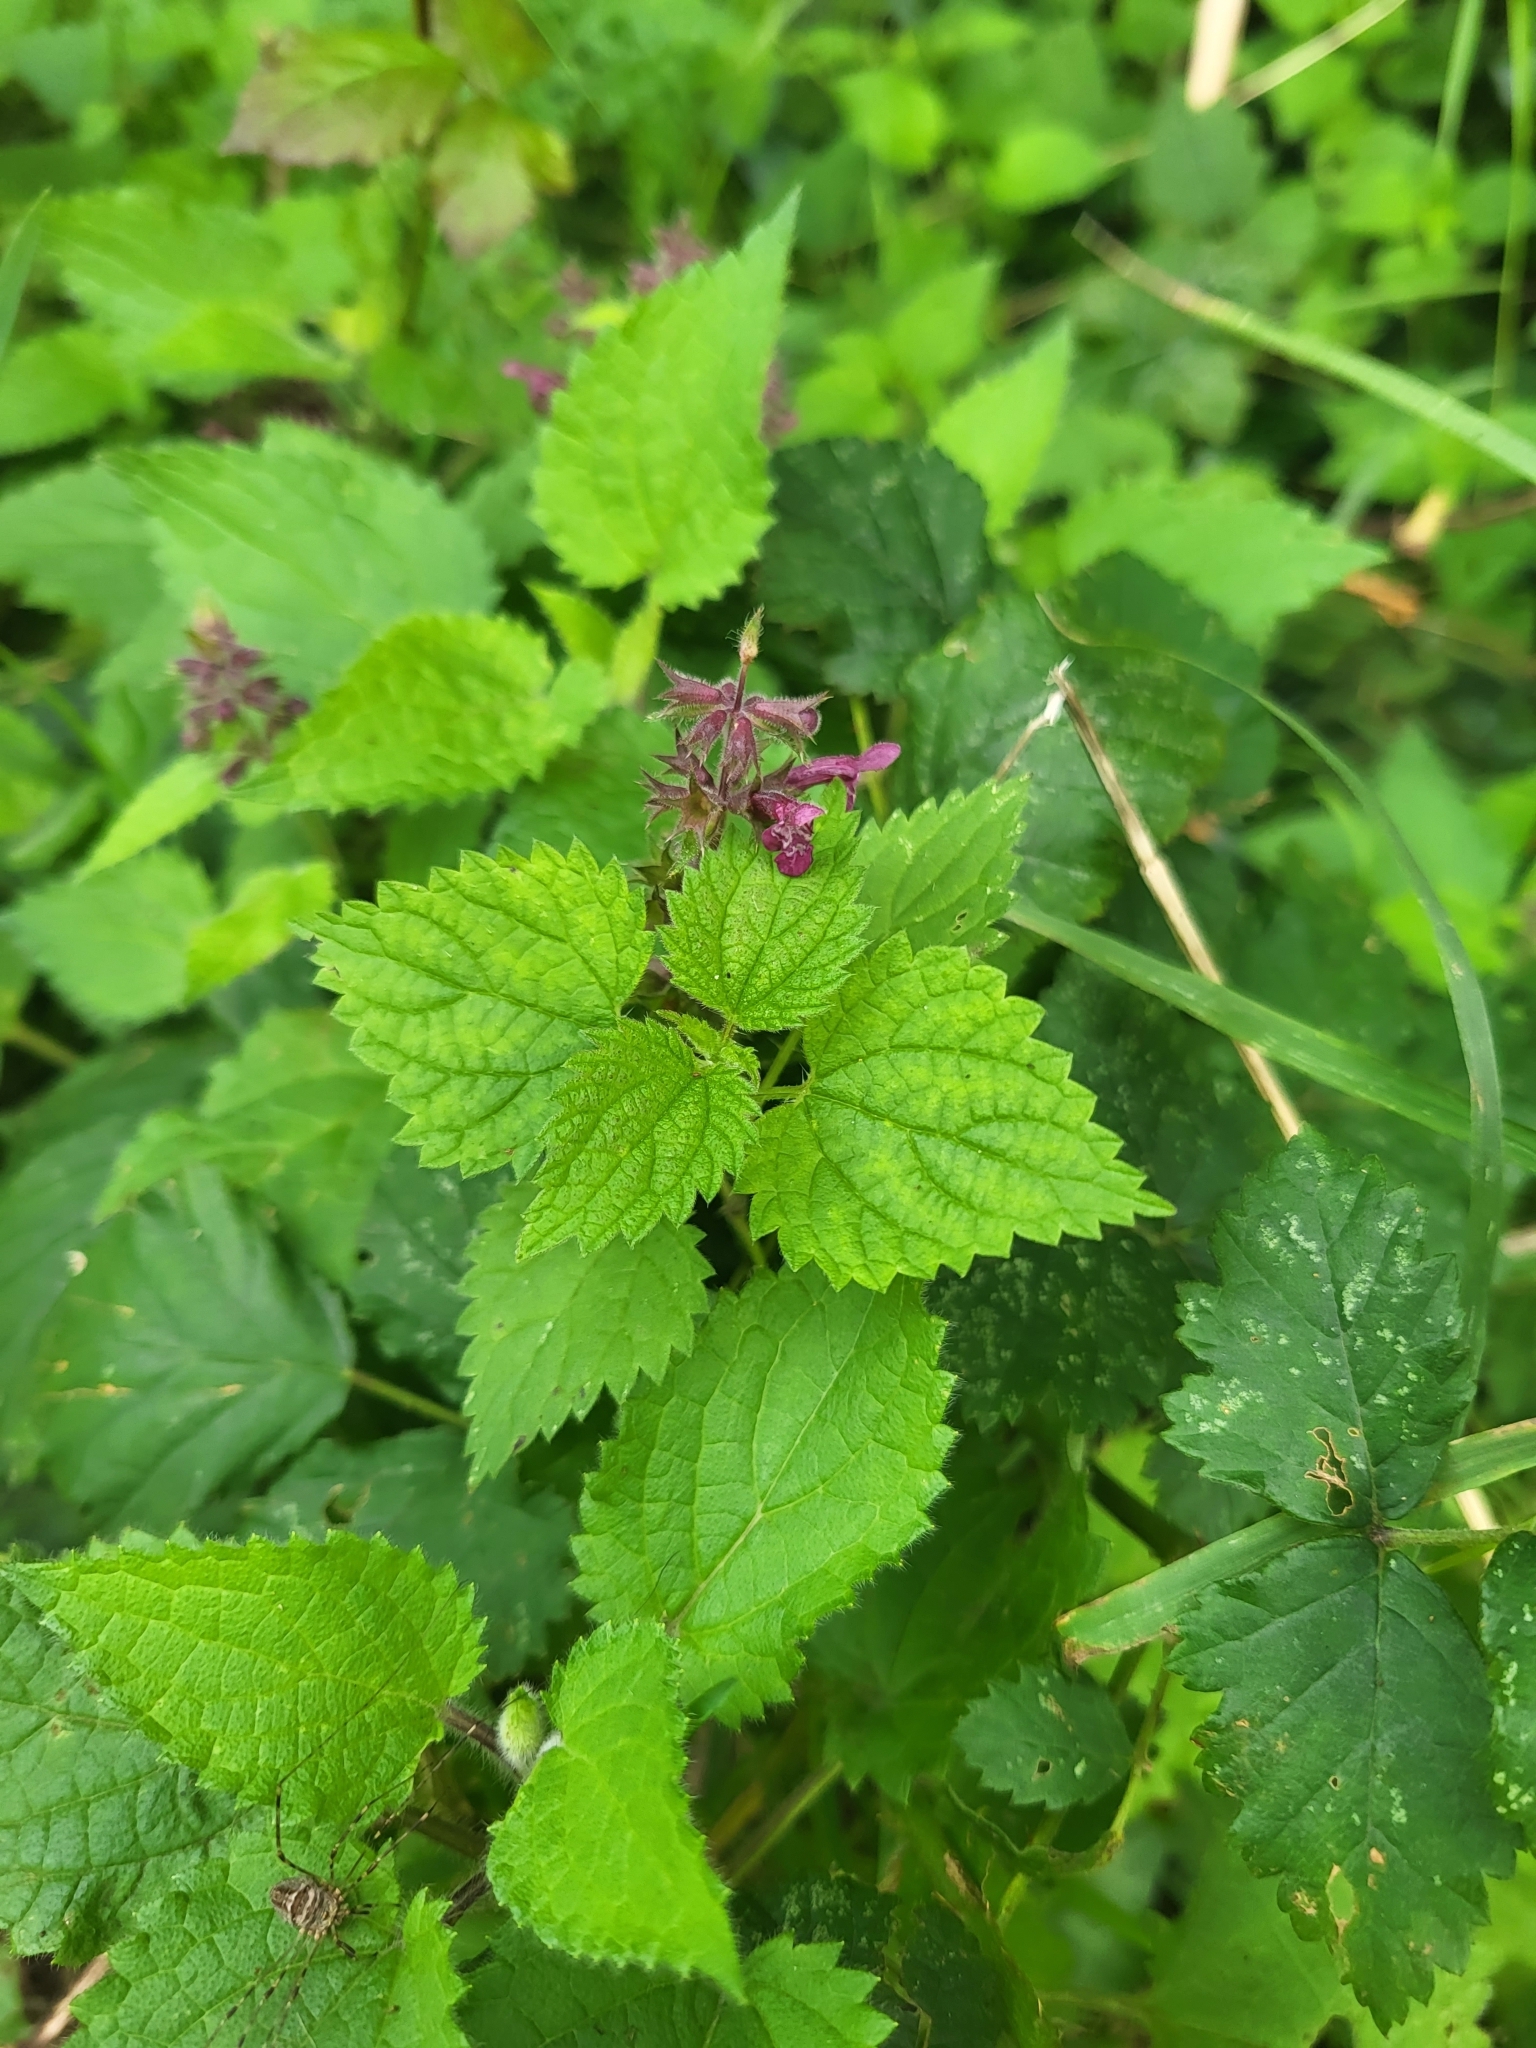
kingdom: Plantae
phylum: Tracheophyta
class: Magnoliopsida
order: Lamiales
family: Lamiaceae
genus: Stachys
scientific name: Stachys sylvatica
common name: Hedge woundwort
